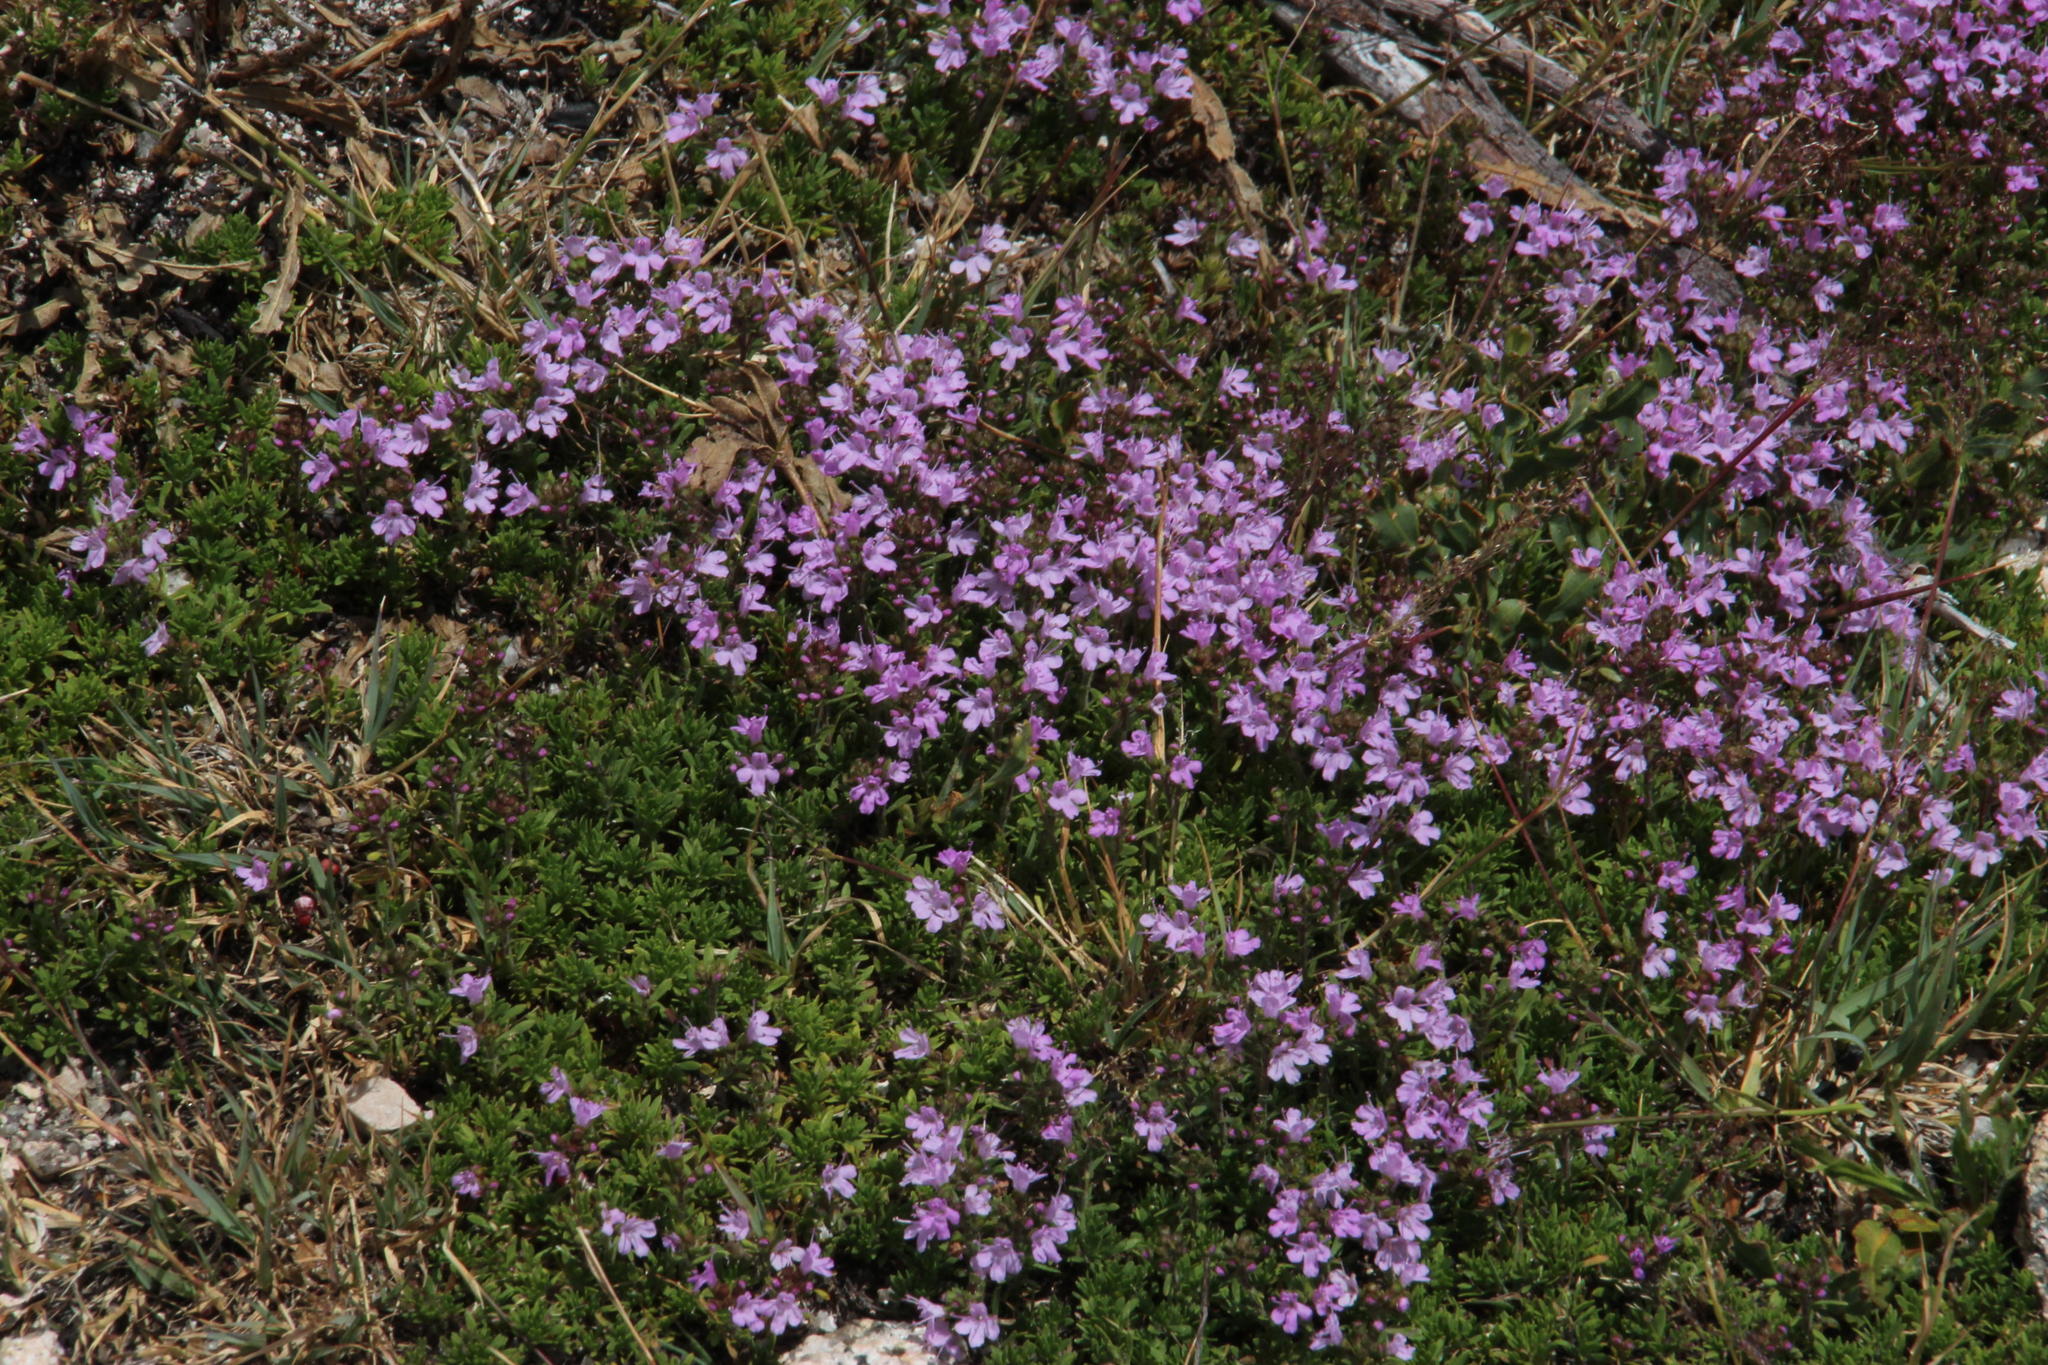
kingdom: Plantae
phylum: Tracheophyta
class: Magnoliopsida
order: Lamiales
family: Lamiaceae
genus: Thymus
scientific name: Thymus caespititius
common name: Azores thyme
